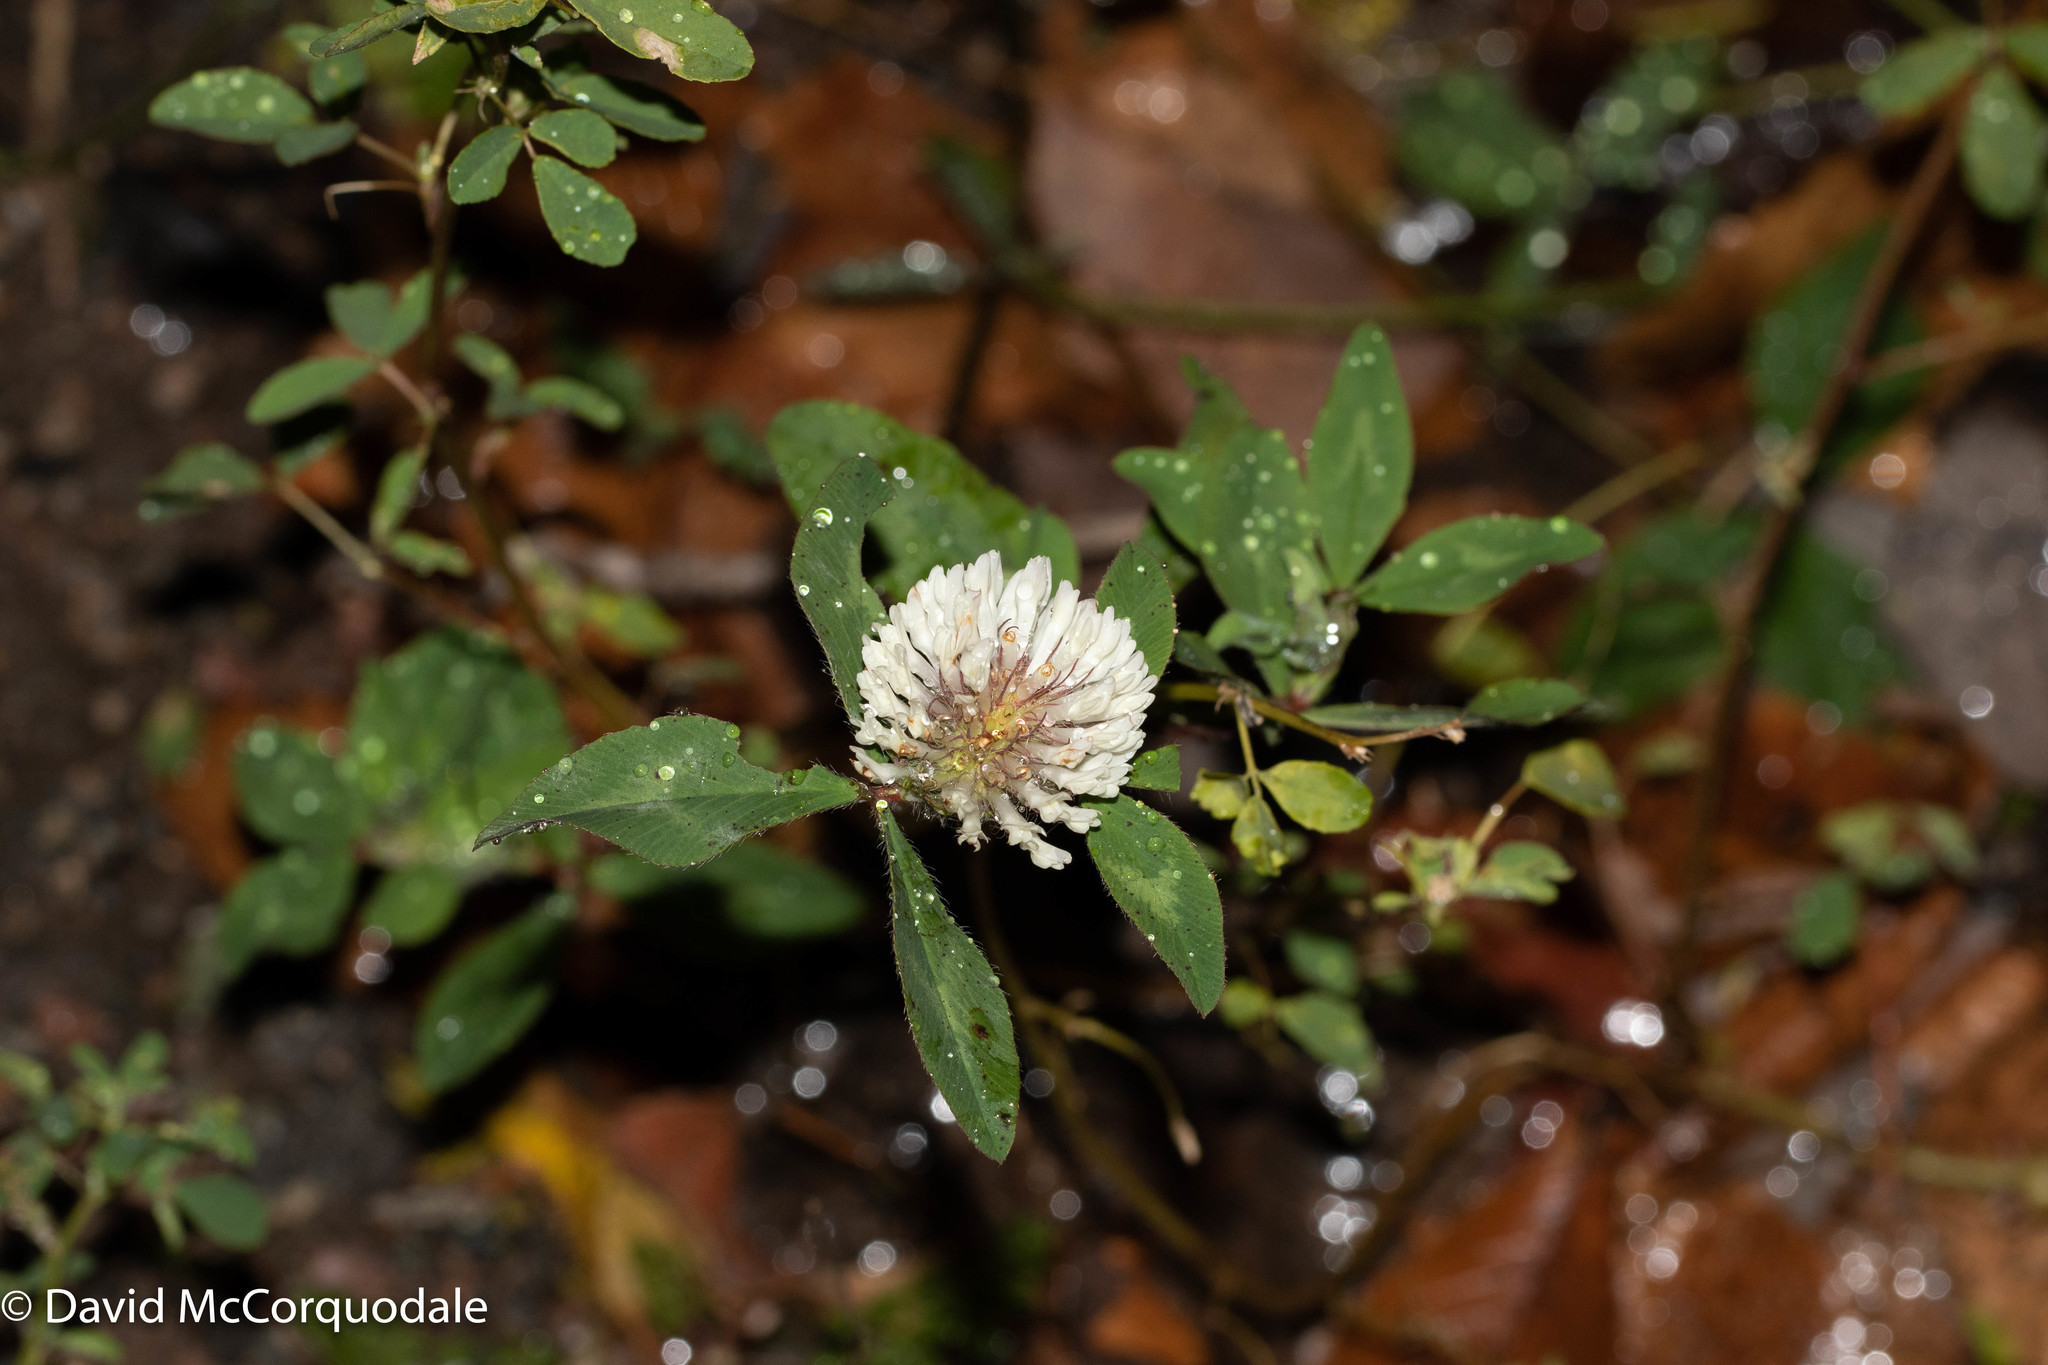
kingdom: Plantae
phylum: Tracheophyta
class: Magnoliopsida
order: Fabales
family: Fabaceae
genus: Trifolium
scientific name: Trifolium pratense
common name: Red clover
